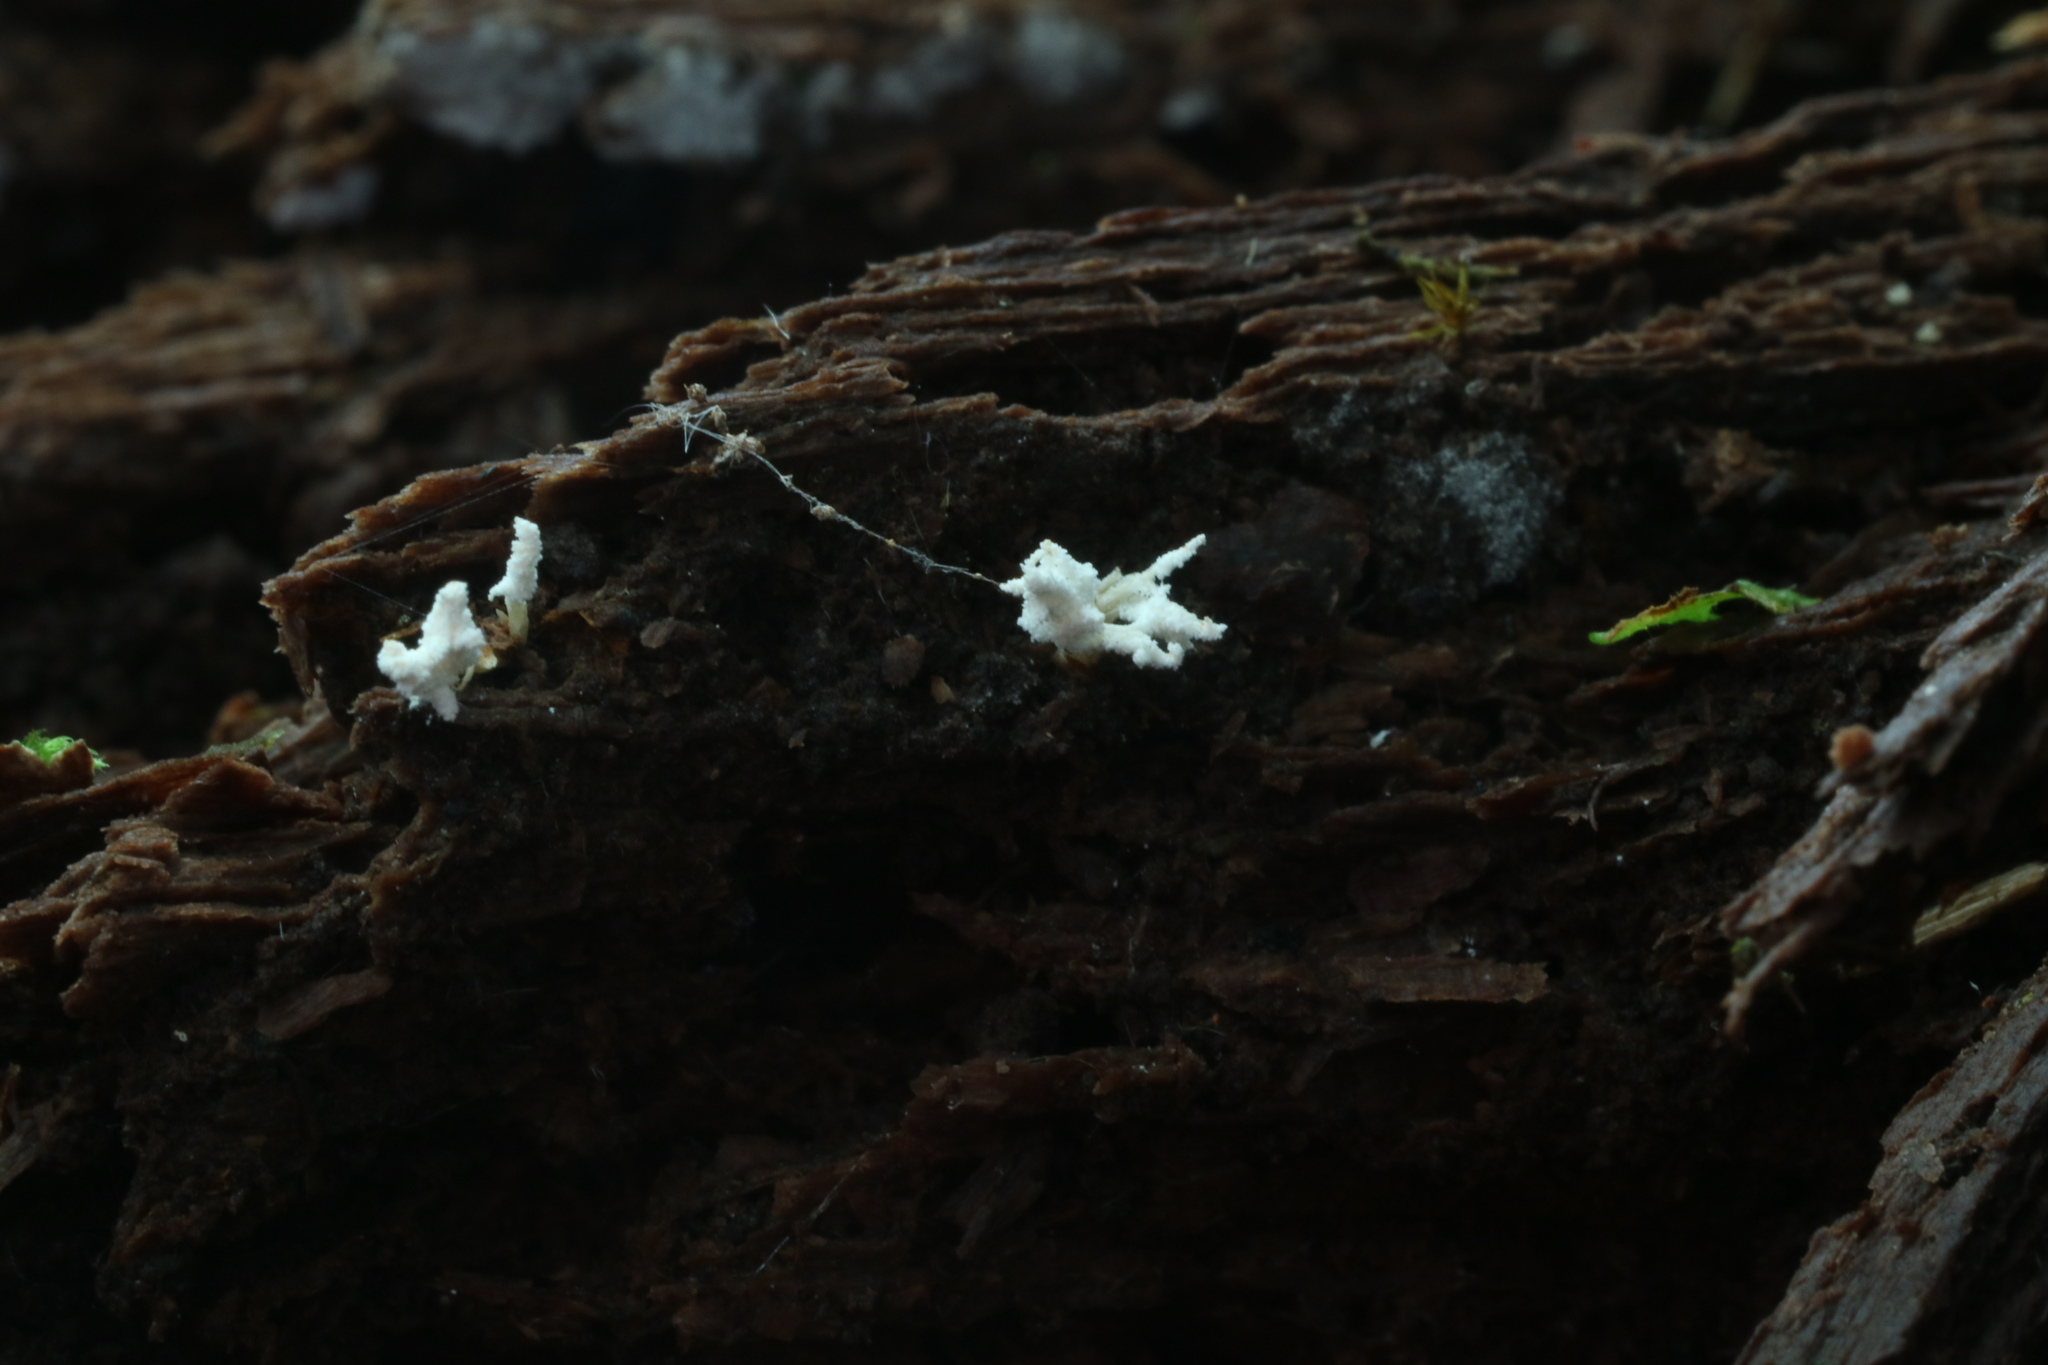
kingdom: Fungi
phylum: Ascomycota
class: Sordariomycetes
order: Hypocreales
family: Cordycipitaceae
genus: Cordyceps
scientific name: Cordyceps tenuipes
